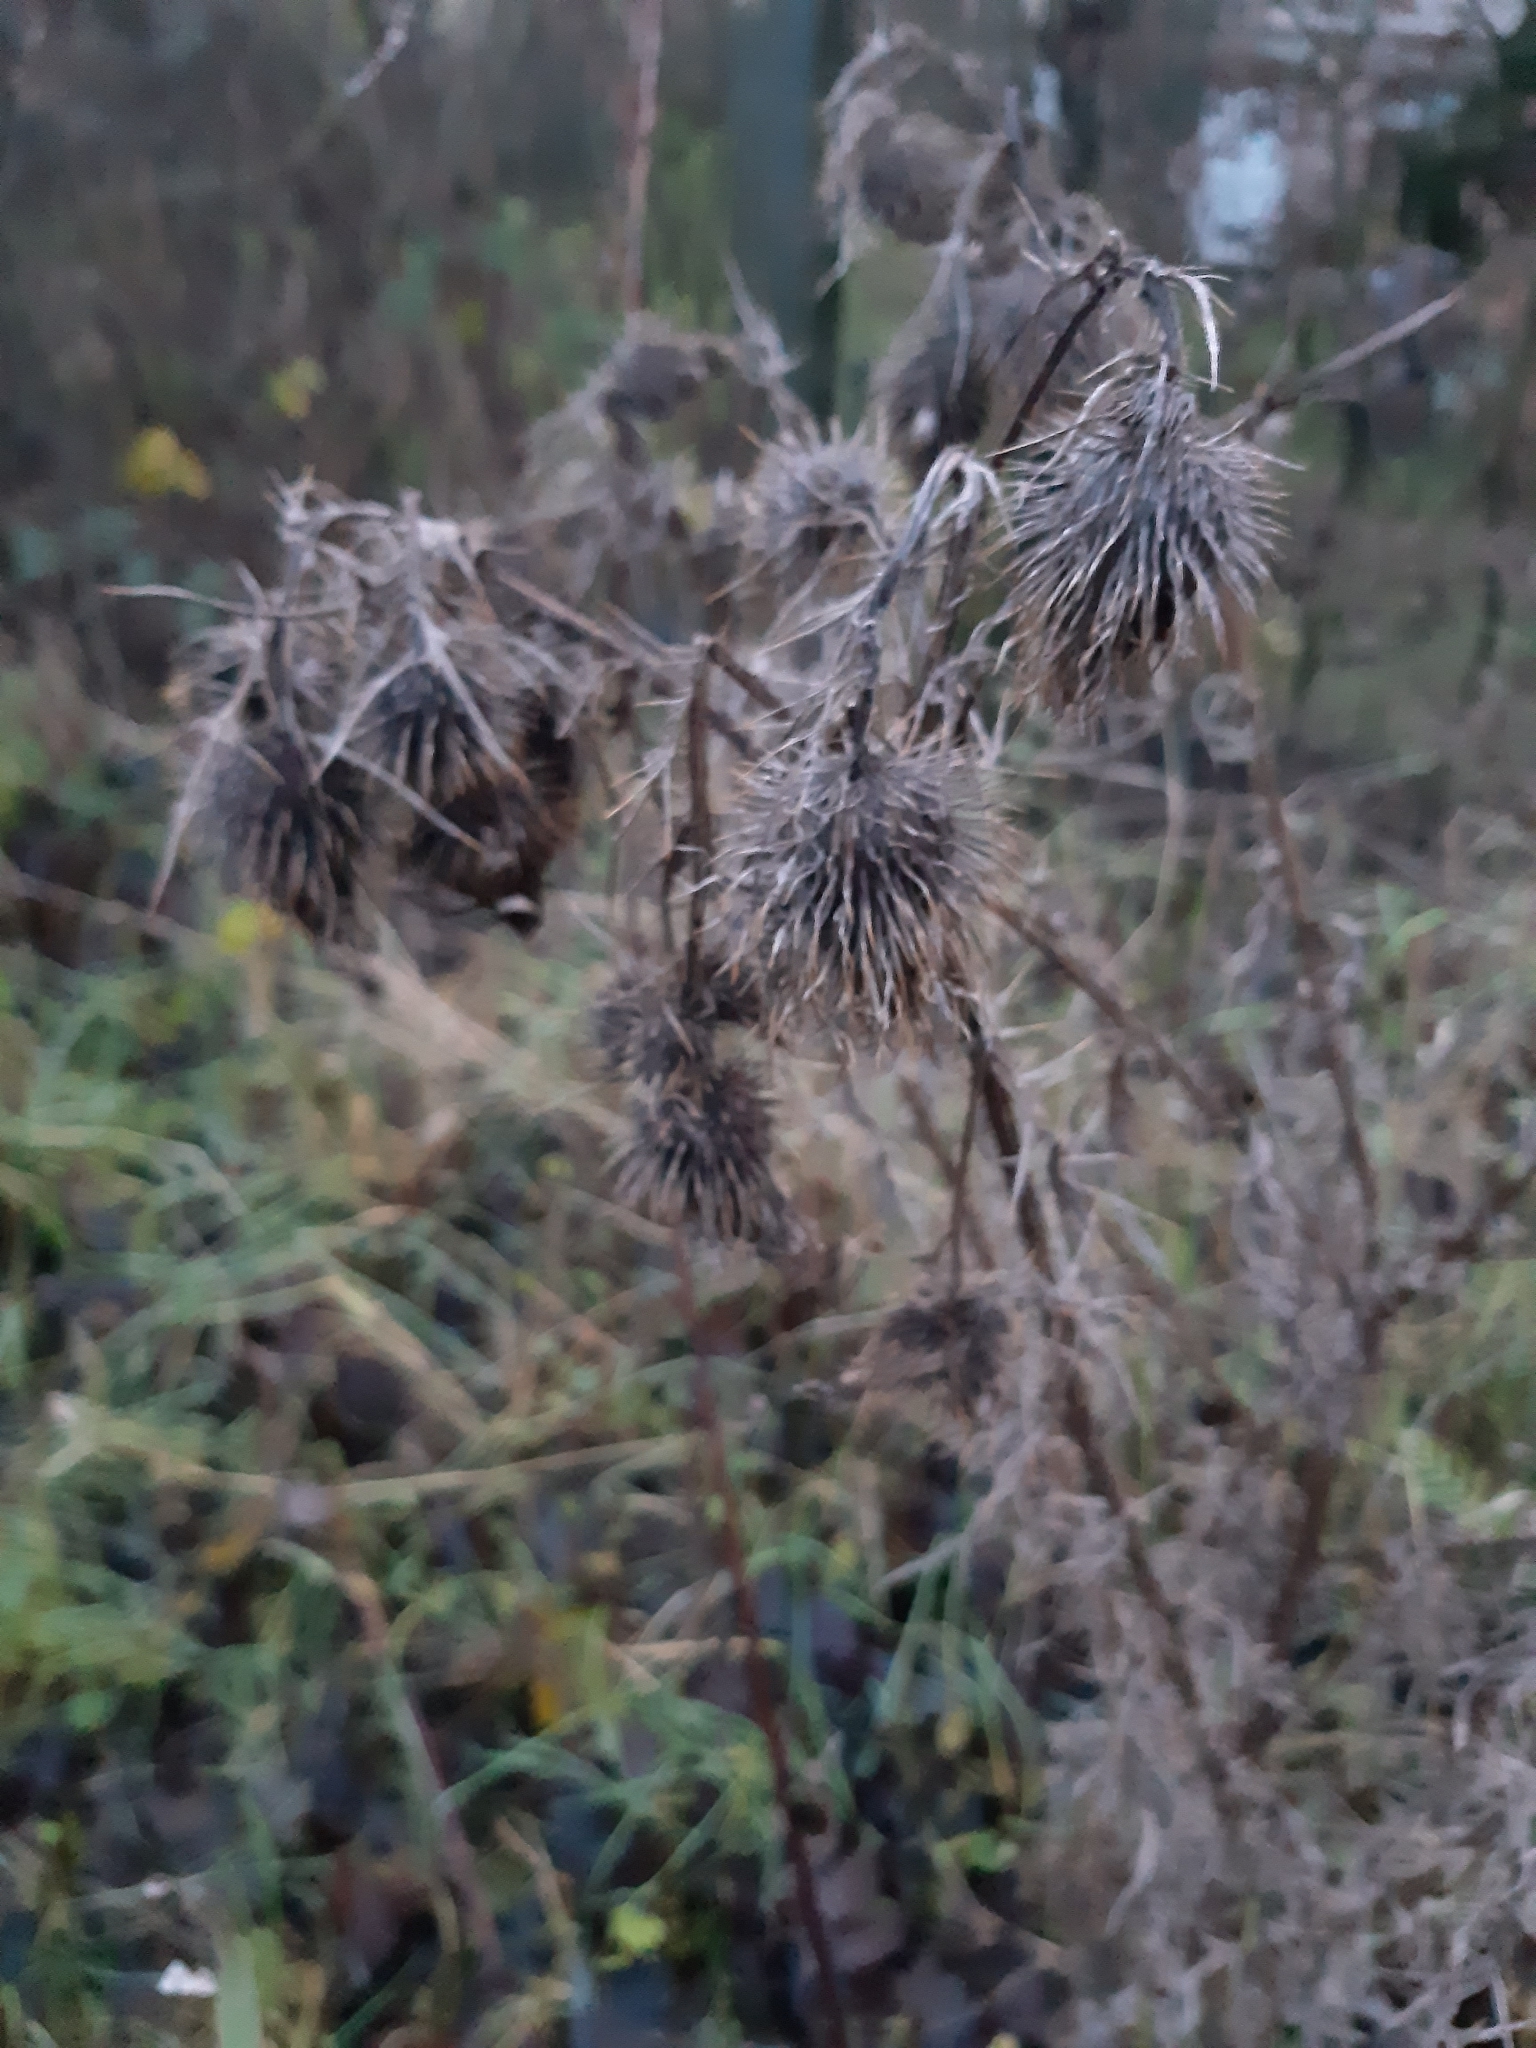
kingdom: Plantae
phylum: Tracheophyta
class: Magnoliopsida
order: Asterales
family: Asteraceae
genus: Cirsium
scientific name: Cirsium vulgare
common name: Bull thistle
